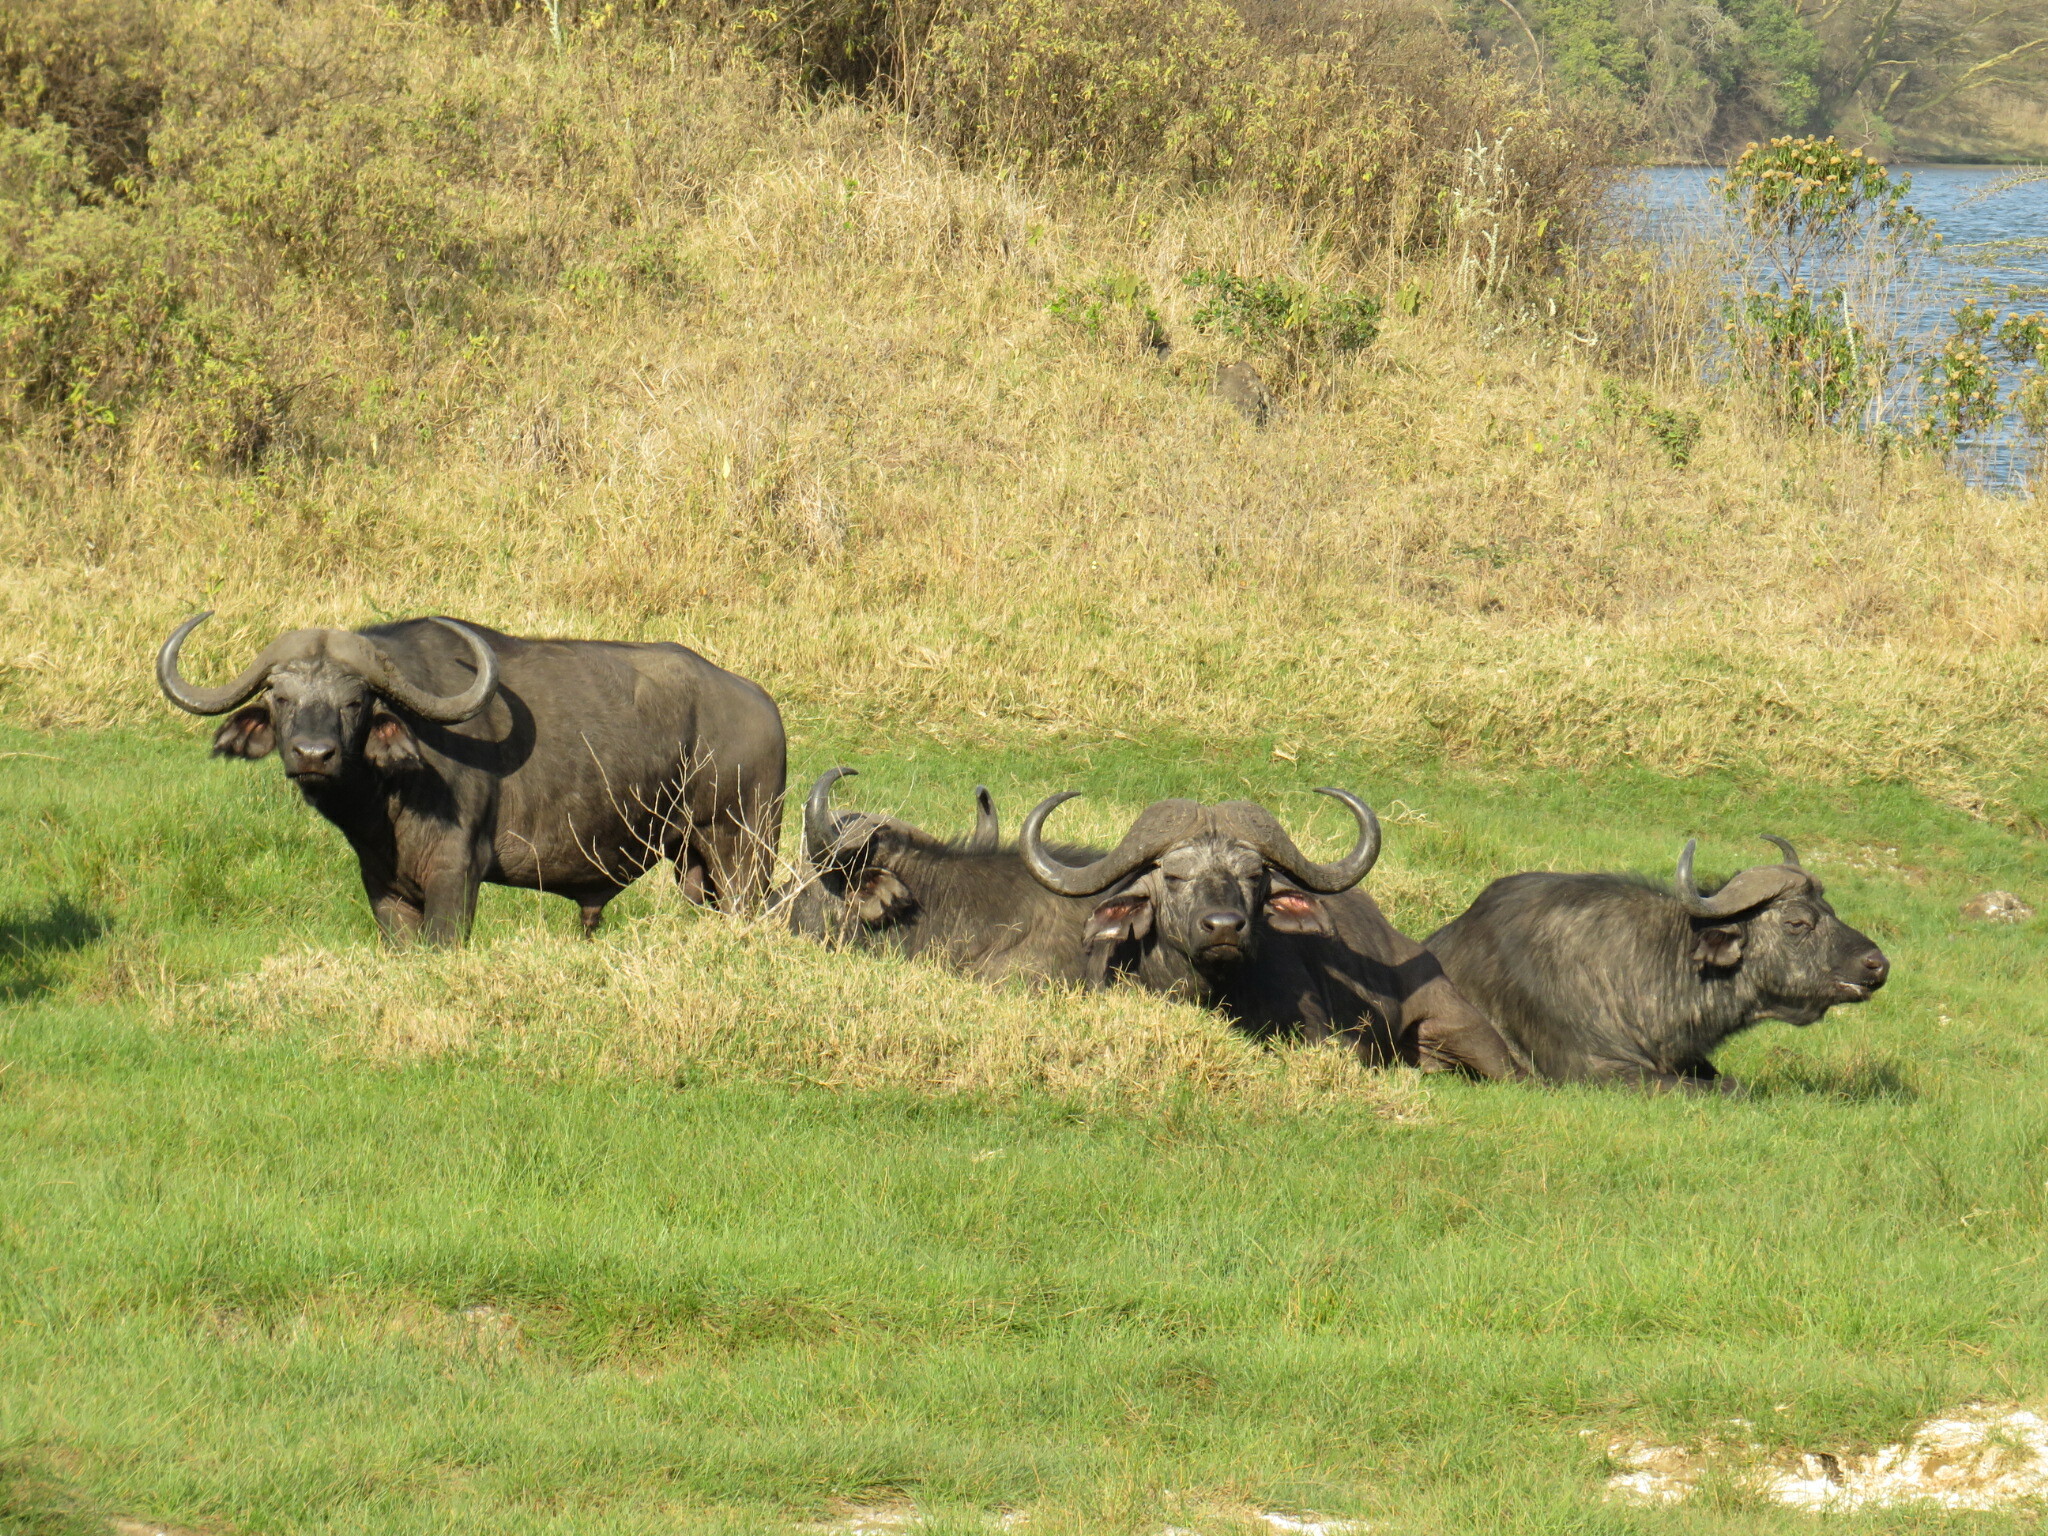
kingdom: Animalia
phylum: Chordata
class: Mammalia
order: Artiodactyla
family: Bovidae
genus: Syncerus
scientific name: Syncerus caffer
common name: African buffalo
